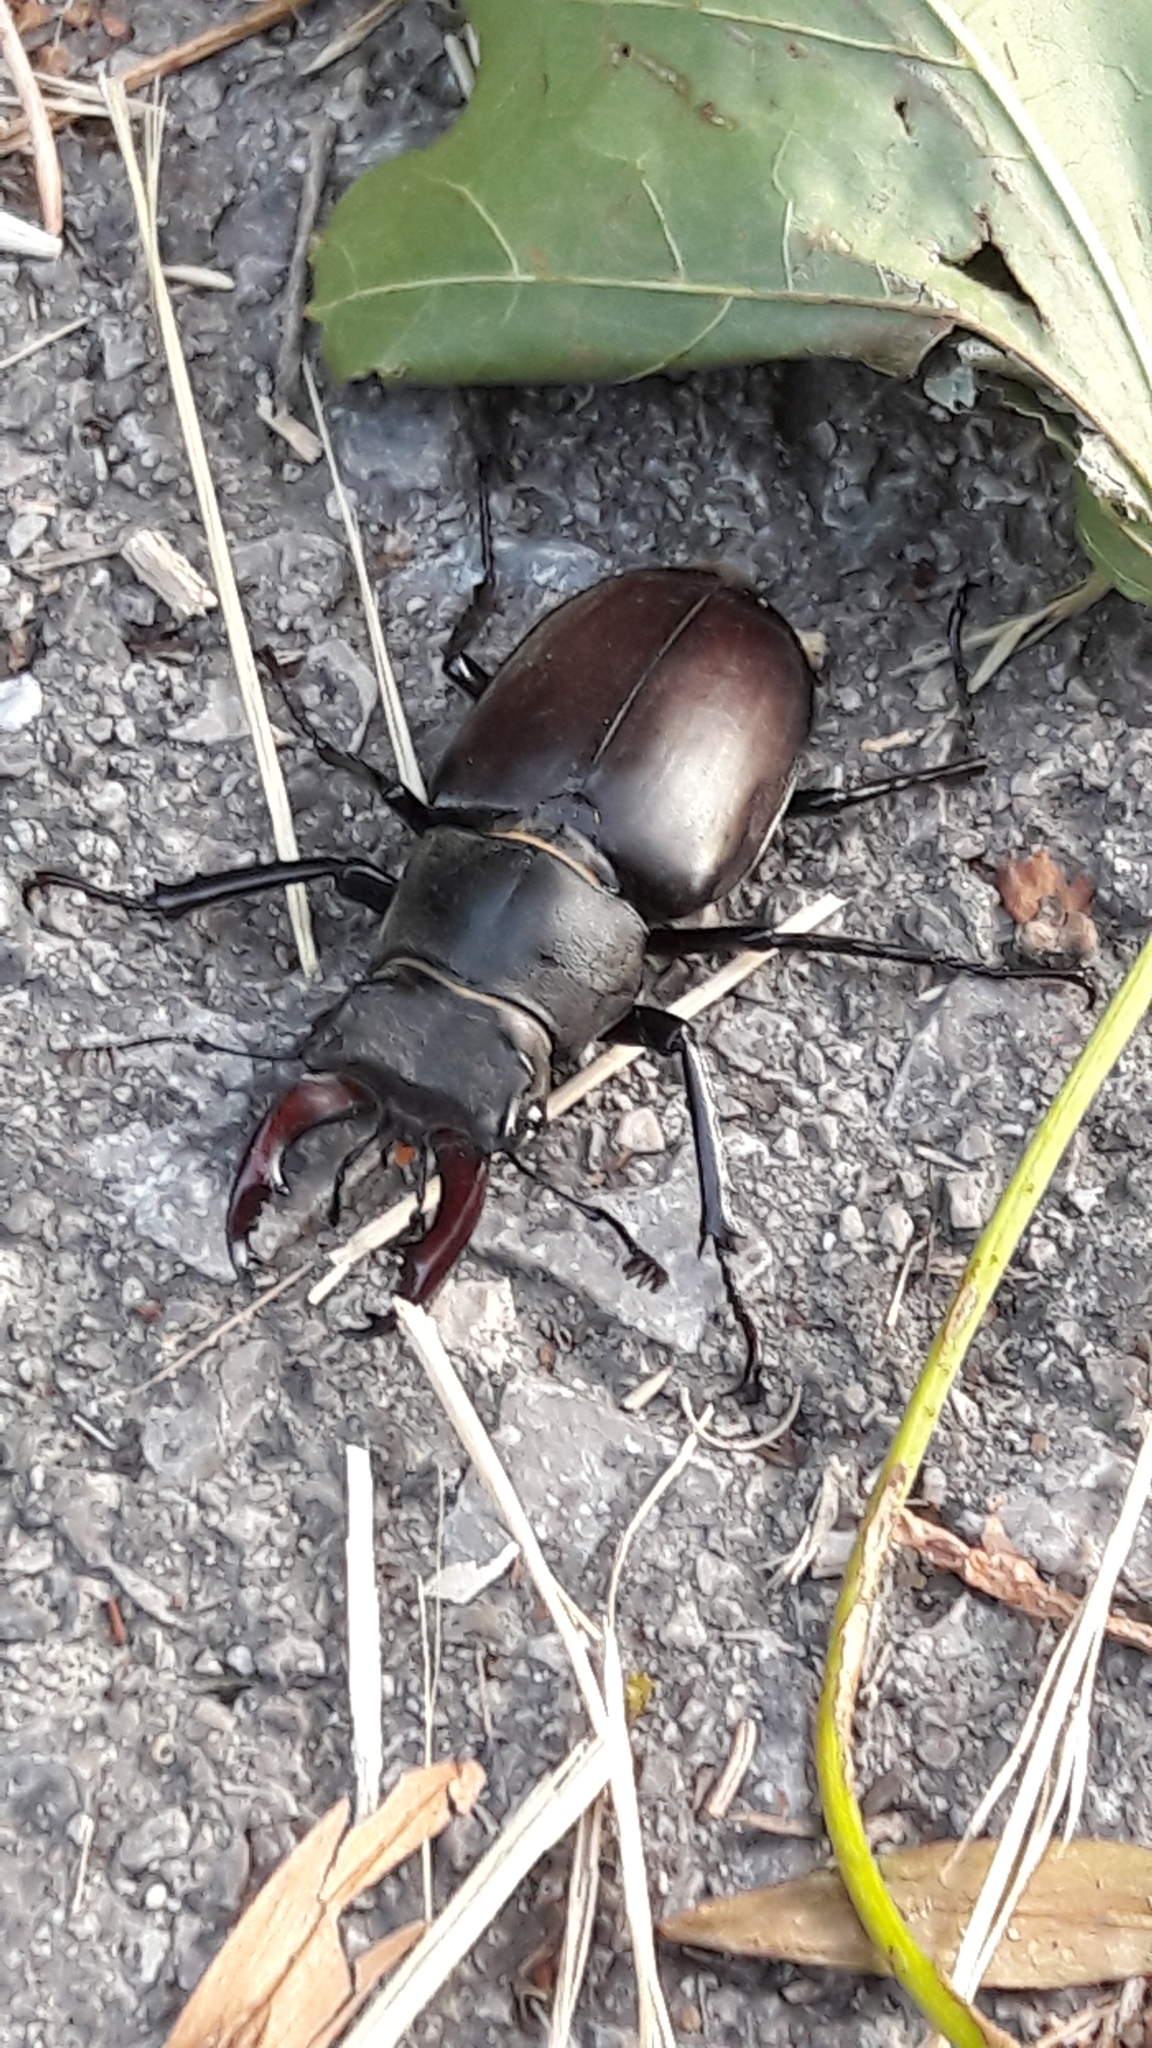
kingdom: Animalia
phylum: Arthropoda
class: Insecta
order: Coleoptera
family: Lucanidae
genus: Lucanus
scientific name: Lucanus cervus
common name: Stag beetle
